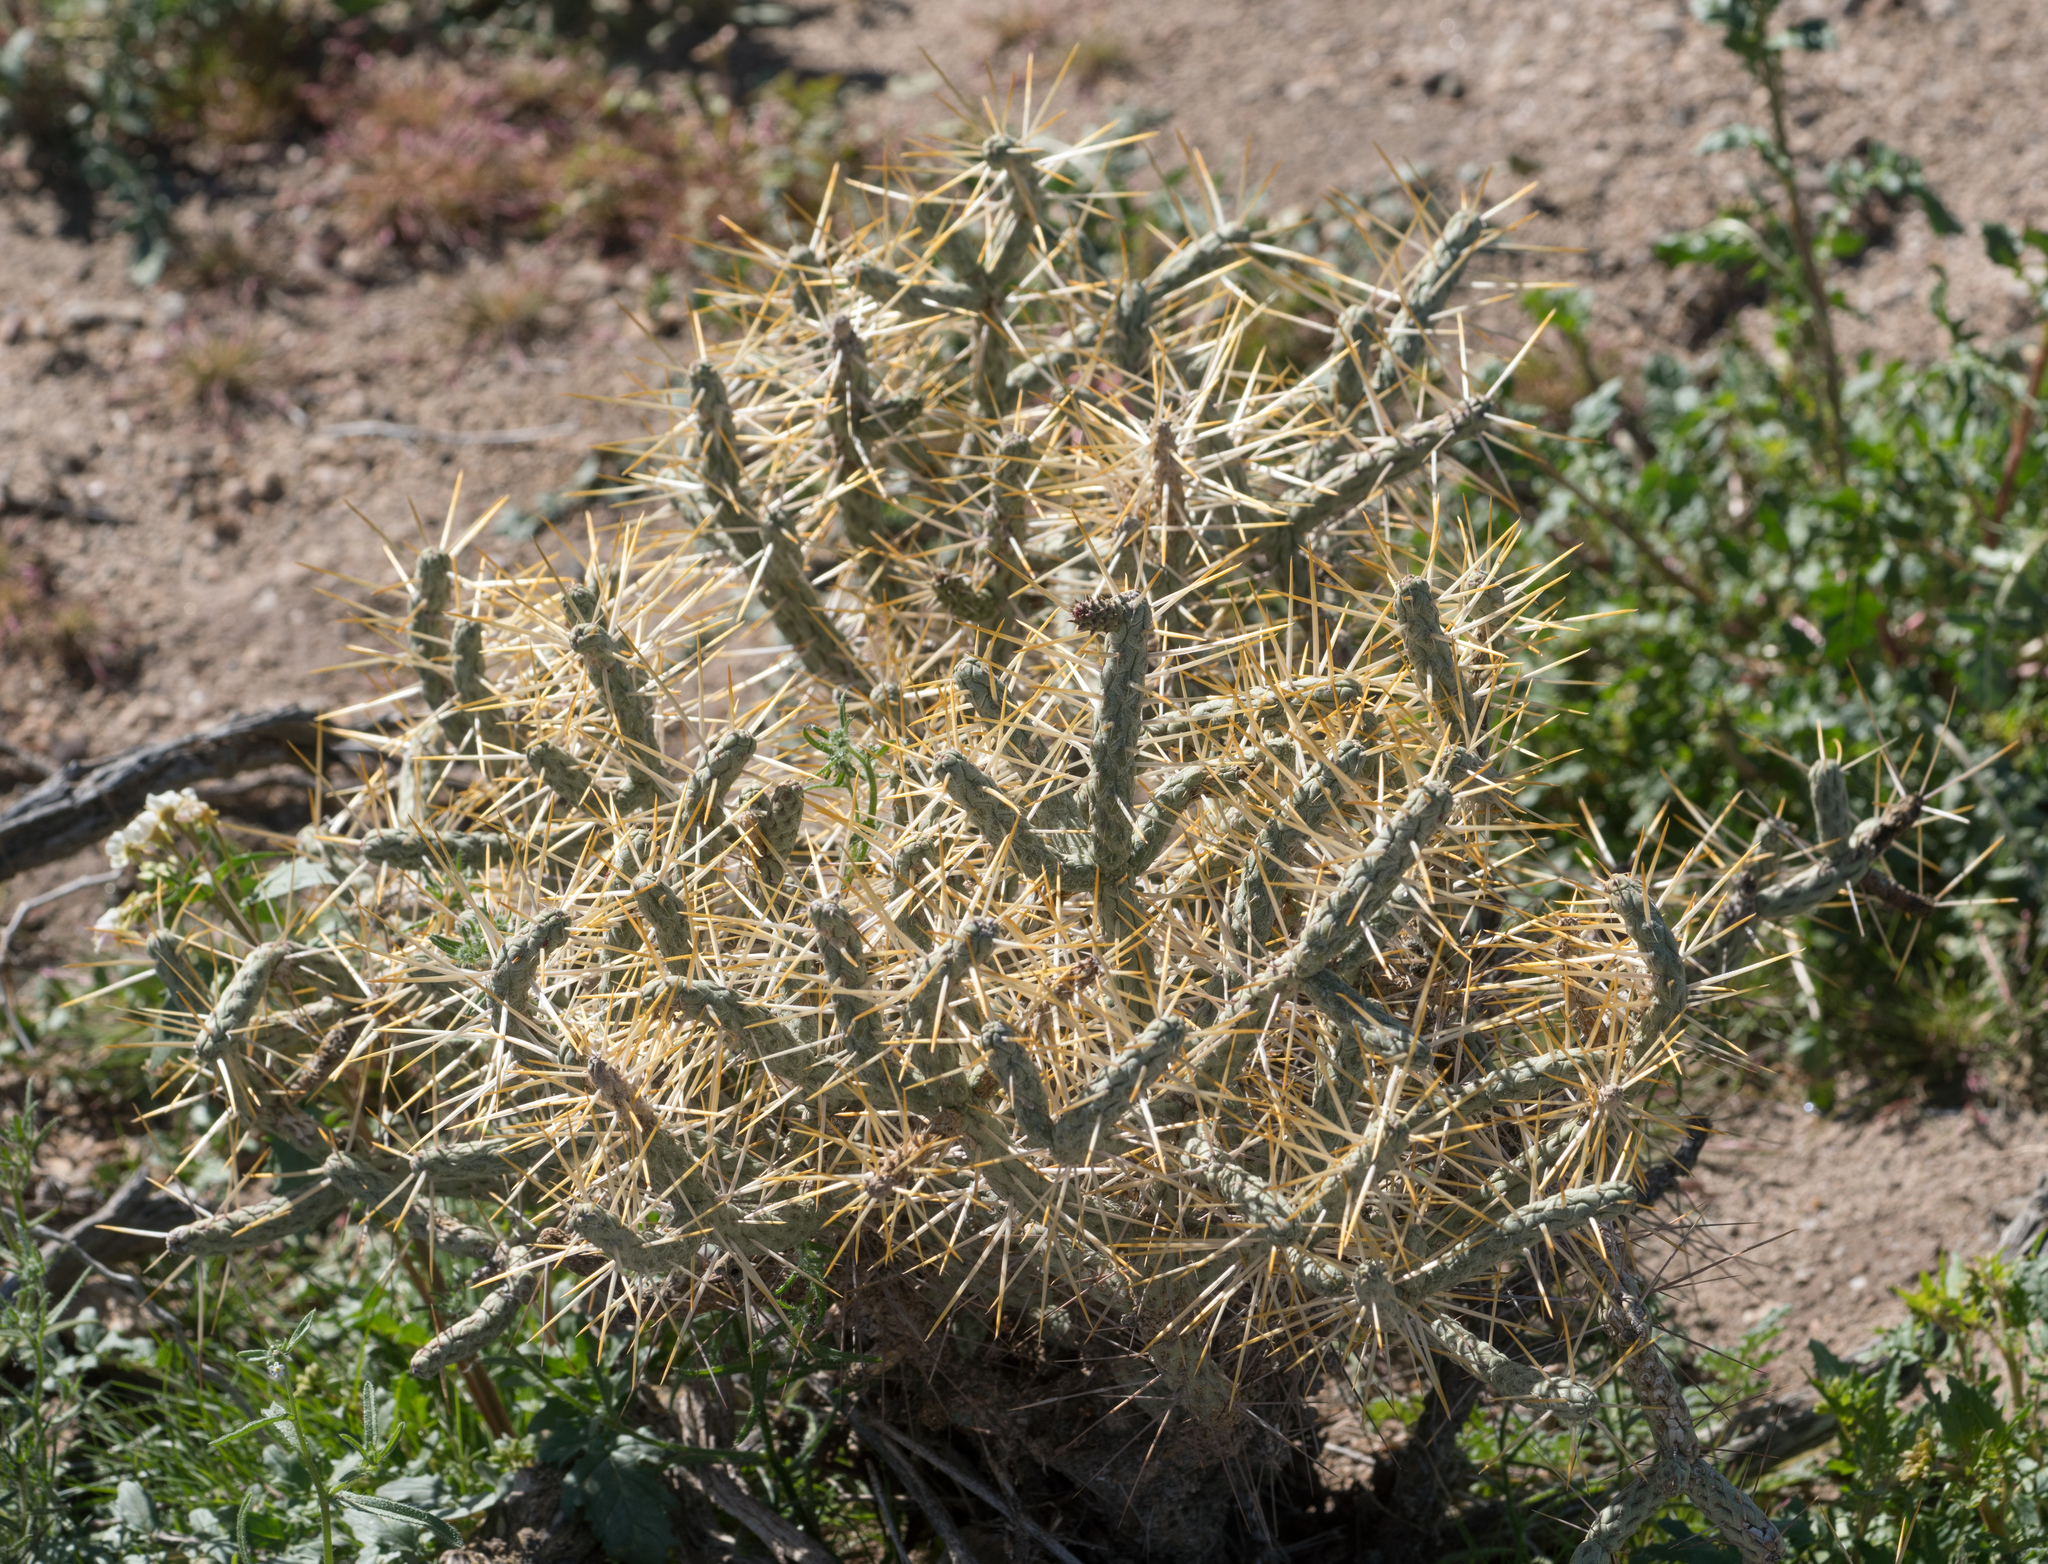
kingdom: Plantae
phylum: Tracheophyta
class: Magnoliopsida
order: Caryophyllales
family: Cactaceae
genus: Cylindropuntia
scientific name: Cylindropuntia ramosissima
